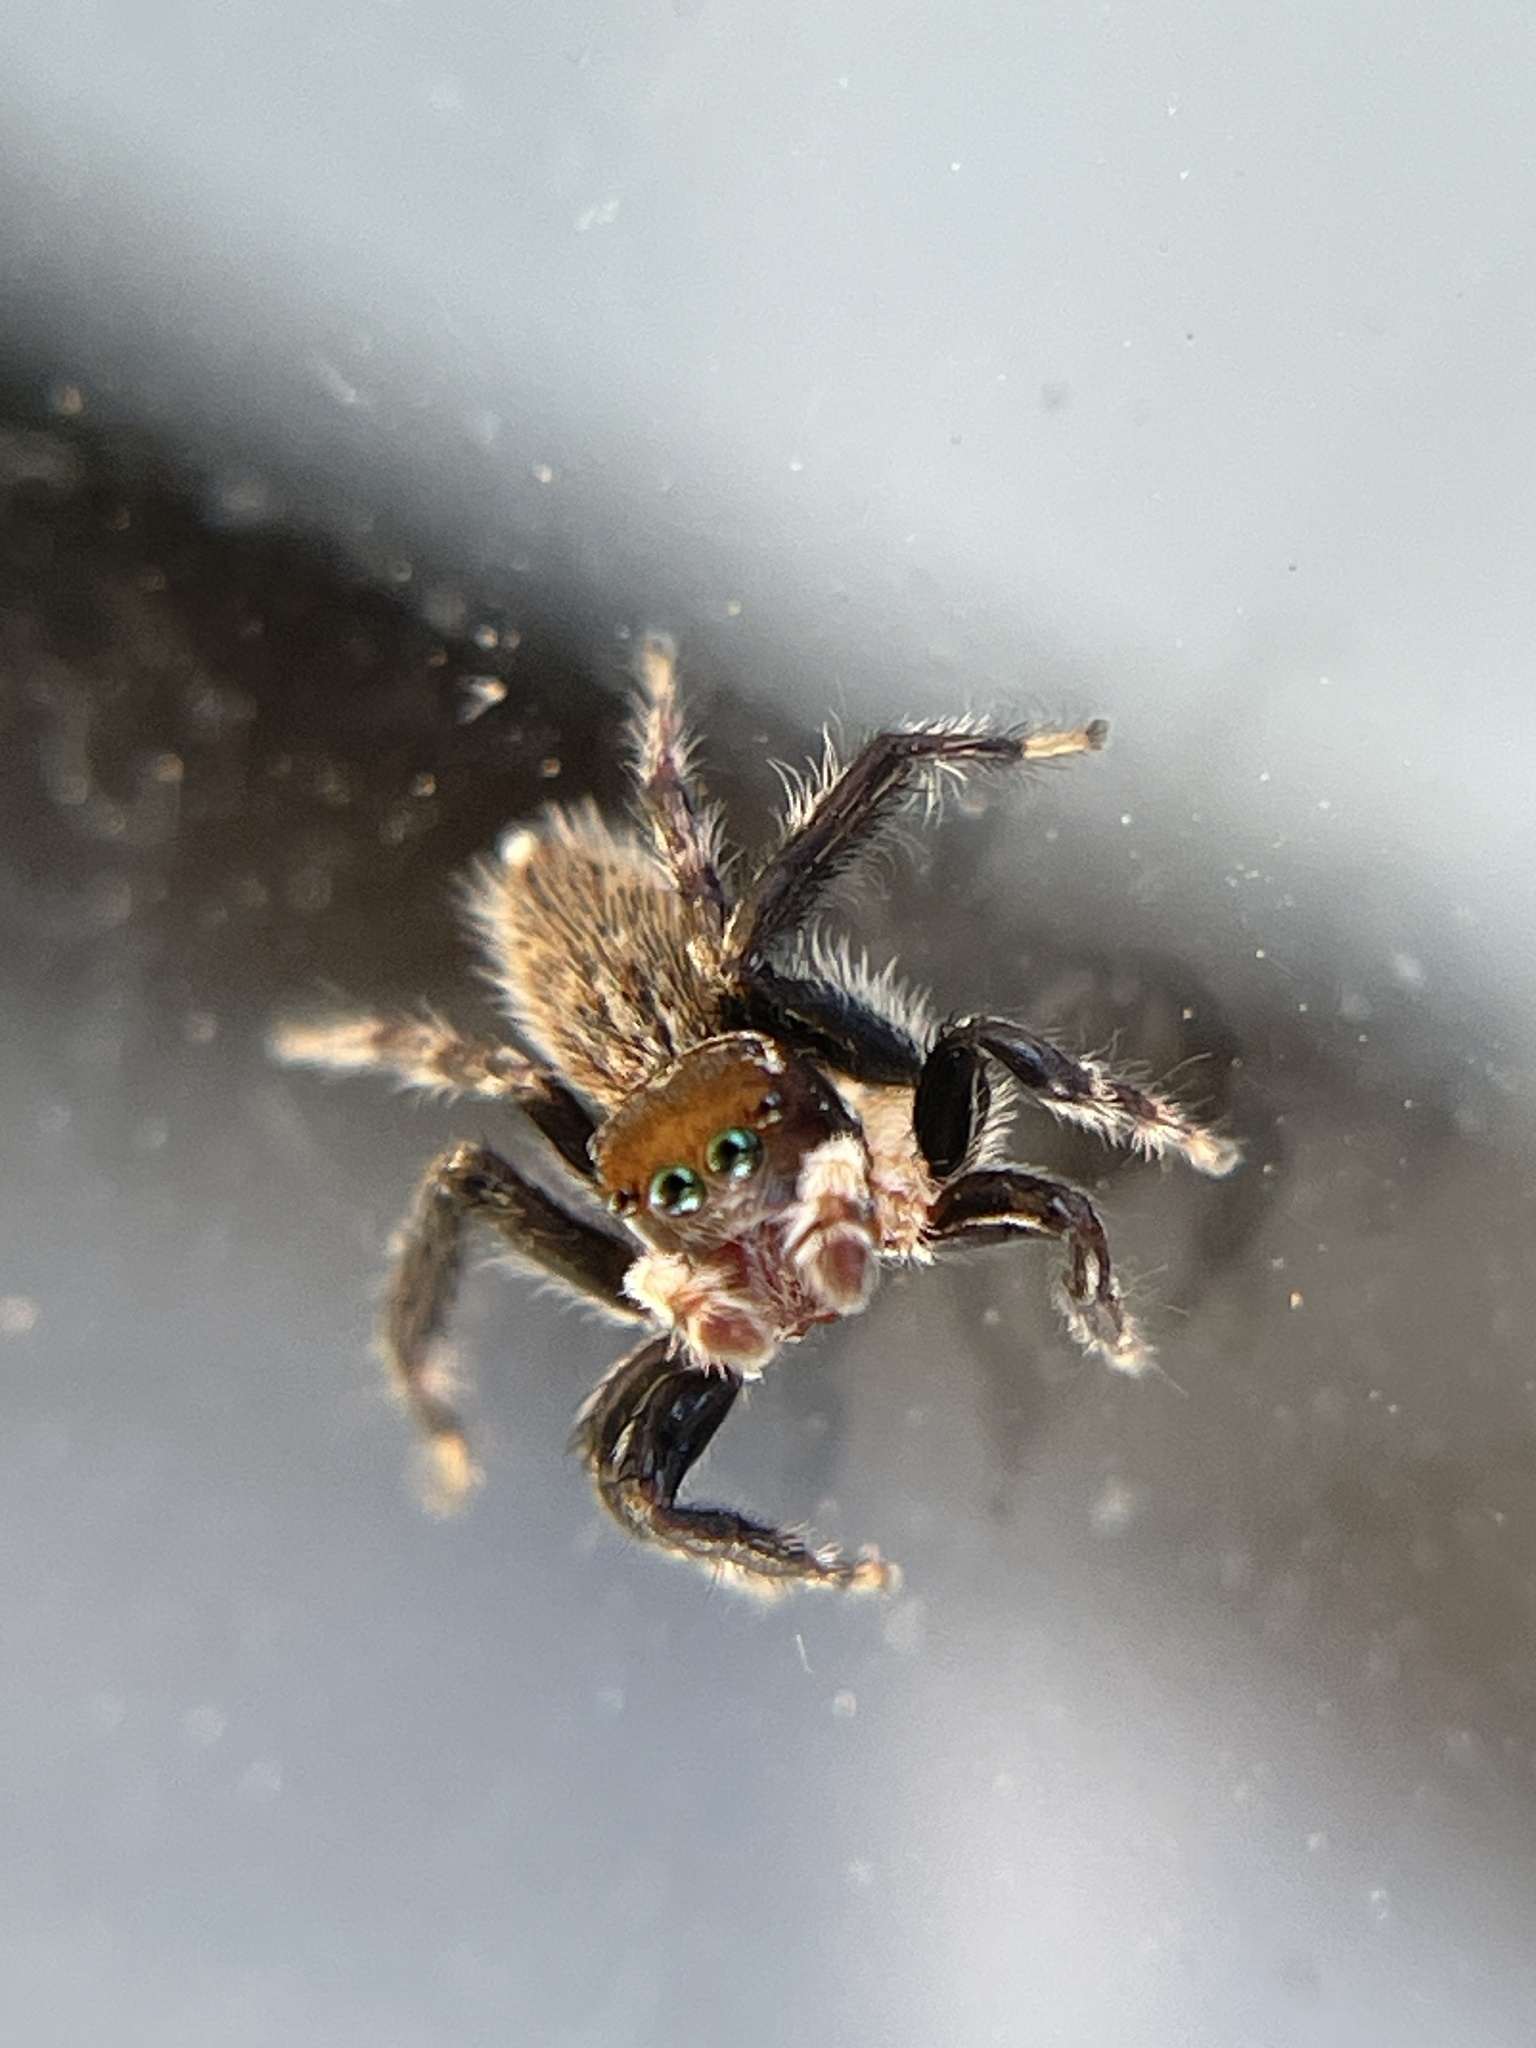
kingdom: Animalia
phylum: Arthropoda
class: Arachnida
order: Araneae
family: Salticidae
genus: Maratus
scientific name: Maratus griseus
